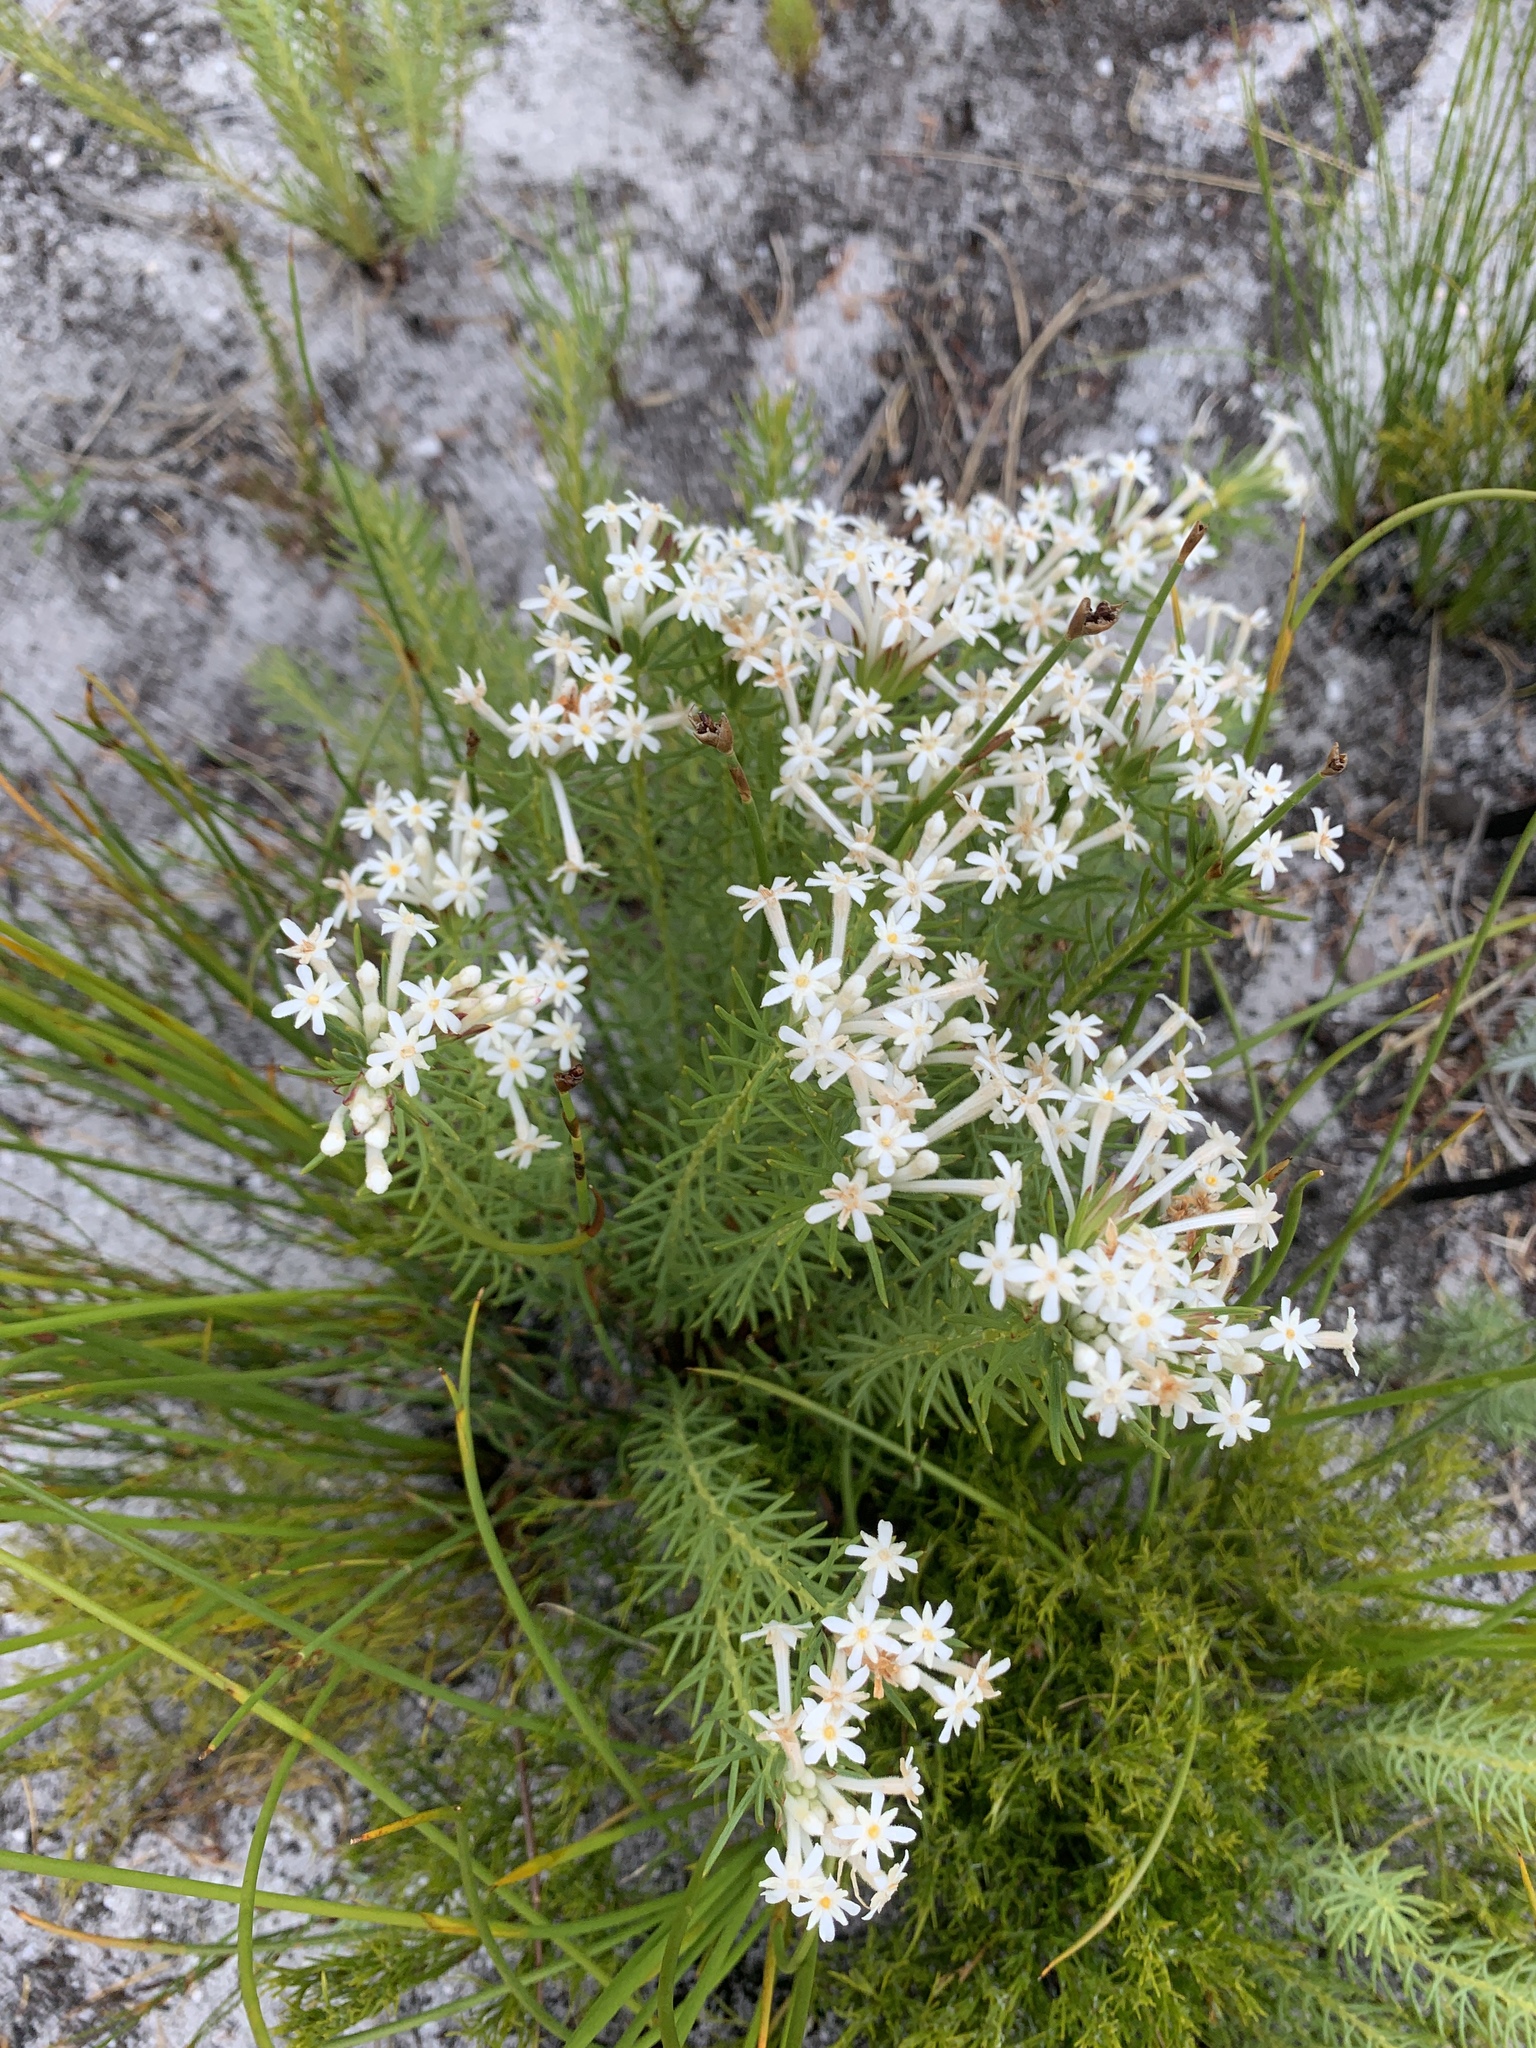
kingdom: Plantae
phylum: Tracheophyta
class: Magnoliopsida
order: Malvales
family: Thymelaeaceae
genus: Gnidia
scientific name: Gnidia pinifolia
